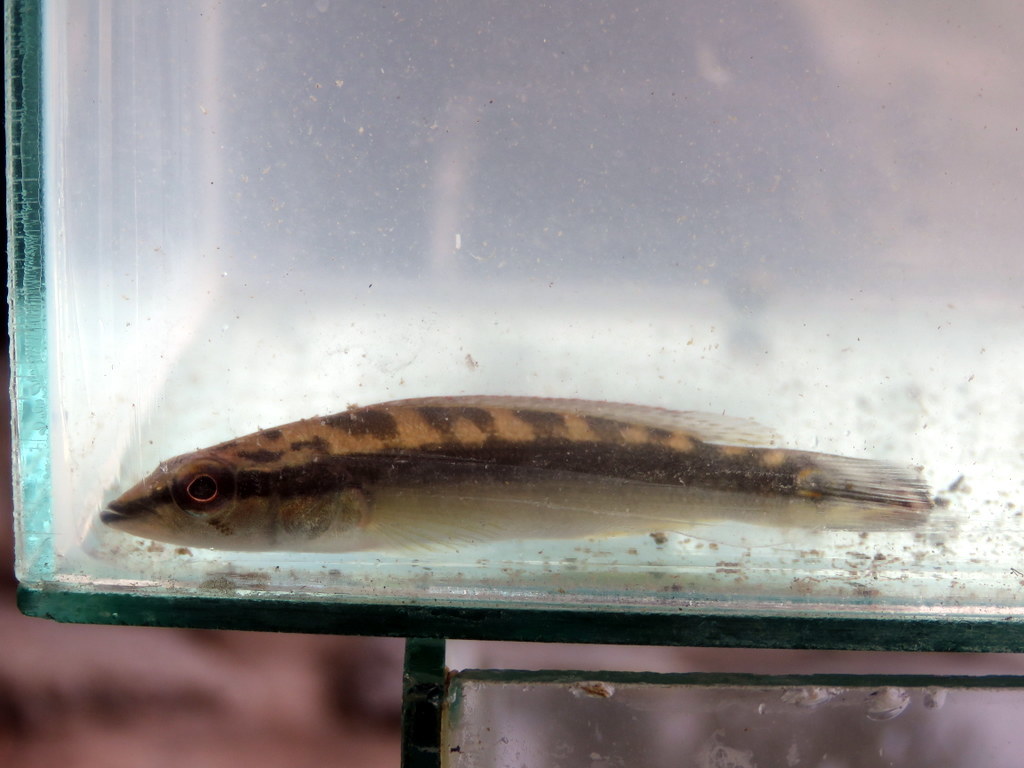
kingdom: Animalia
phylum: Chordata
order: Perciformes
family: Cichlidae
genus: Crenicichla
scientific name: Crenicichla scottii
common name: Pike cichlid
